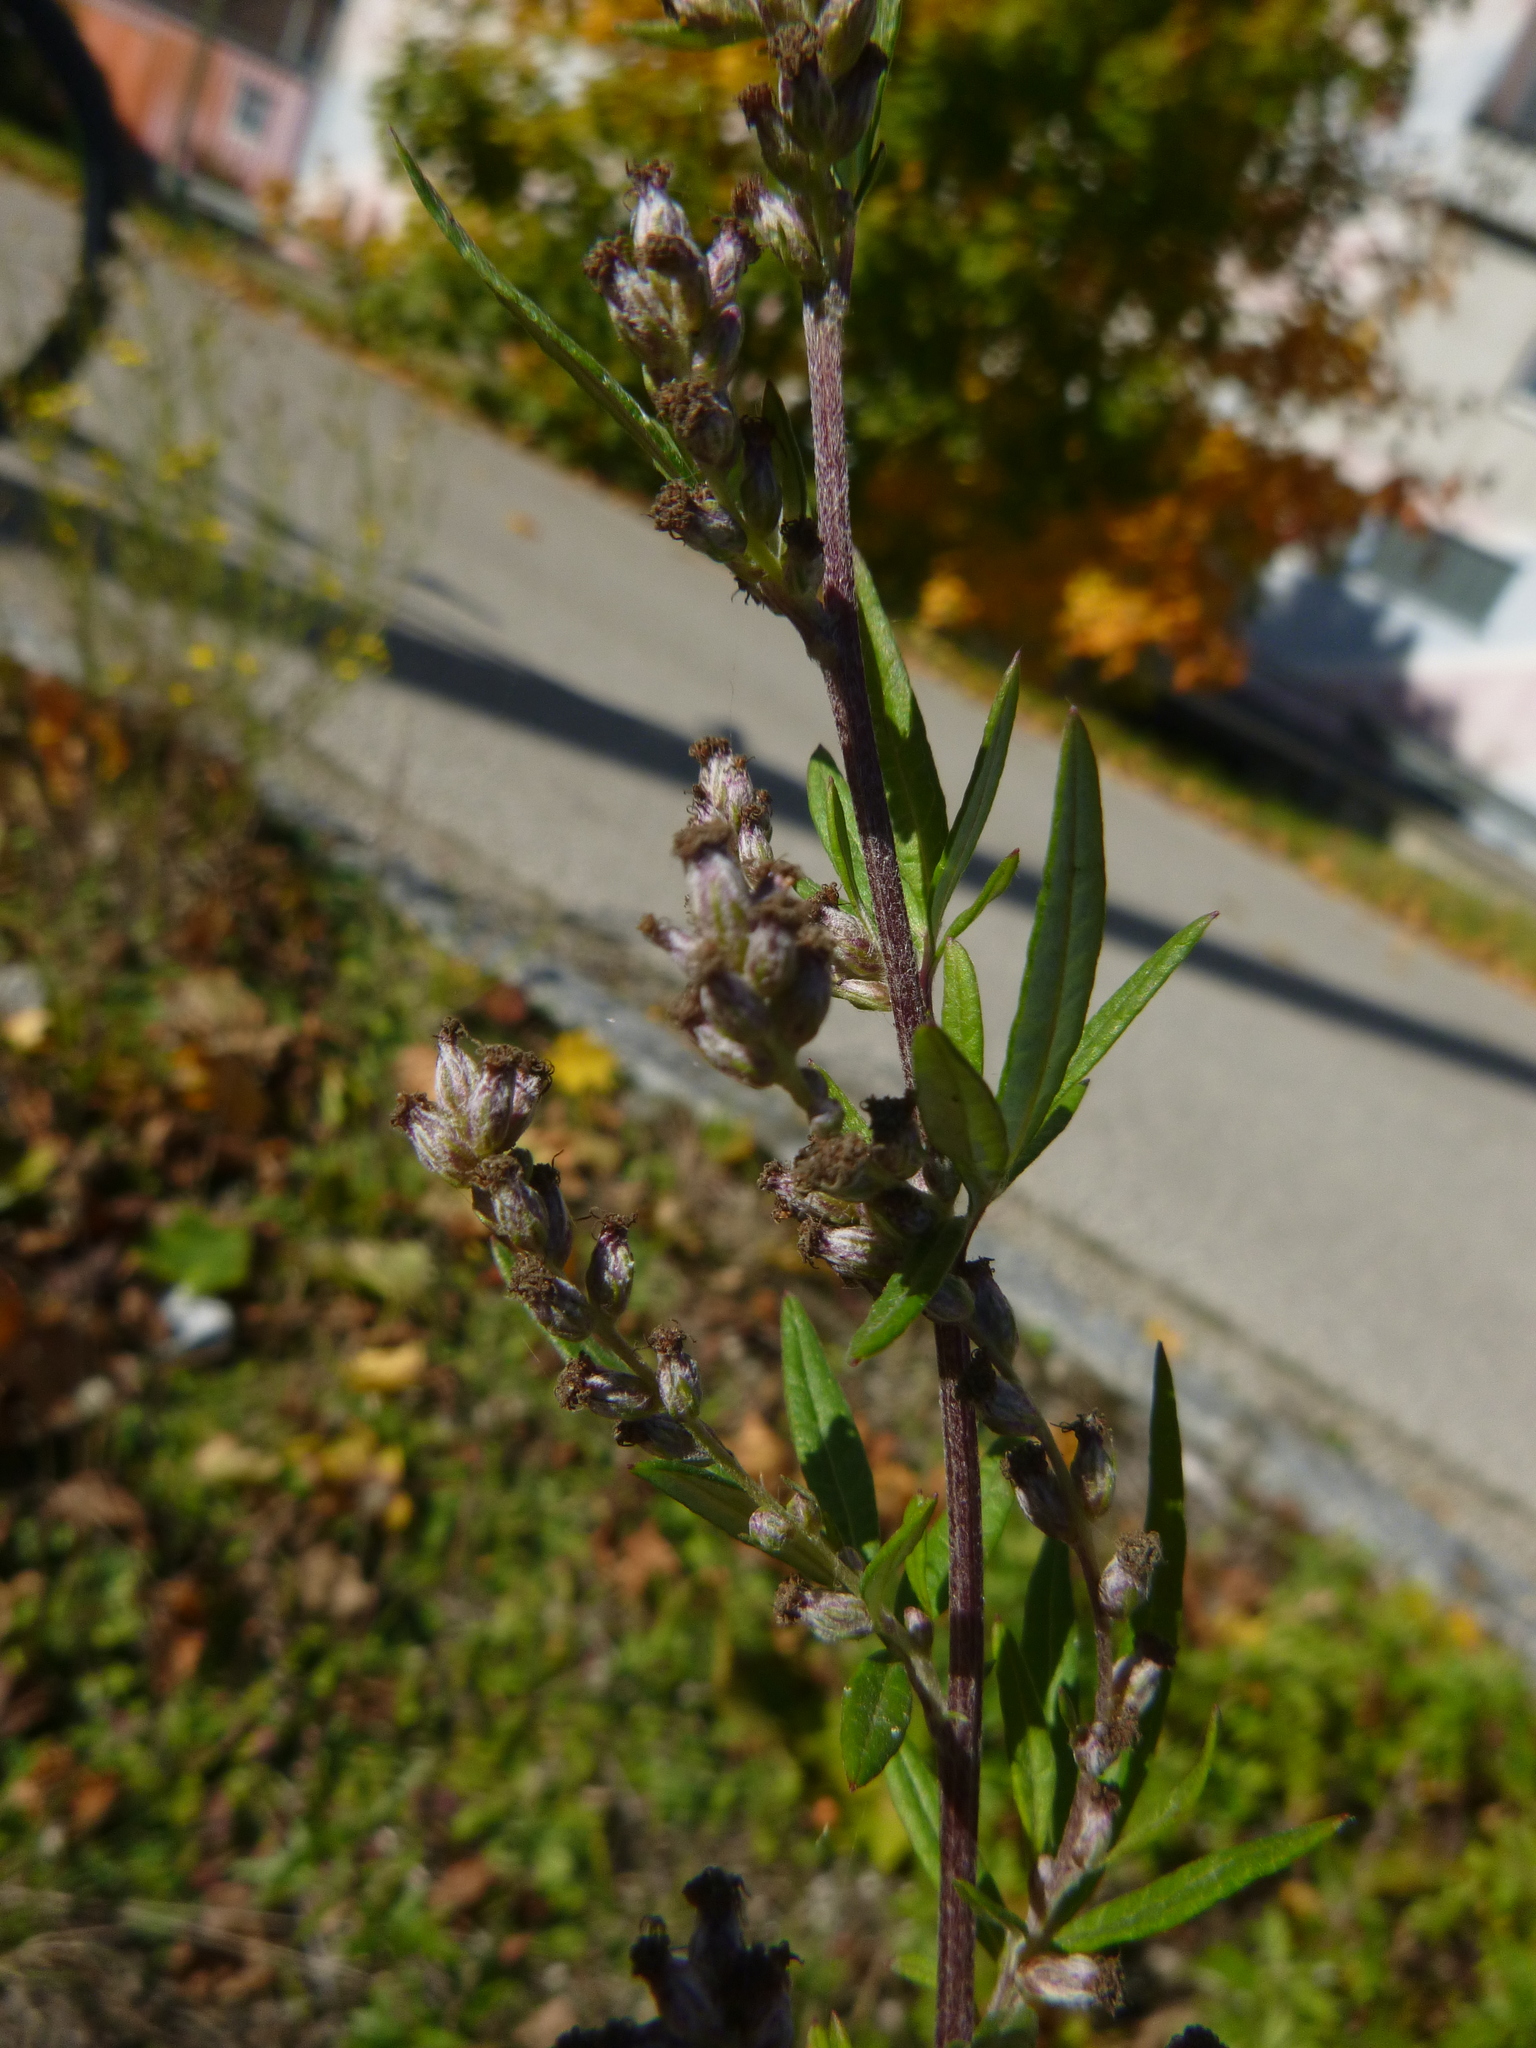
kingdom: Plantae
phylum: Tracheophyta
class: Magnoliopsida
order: Asterales
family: Asteraceae
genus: Artemisia
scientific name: Artemisia vulgaris
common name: Mugwort
